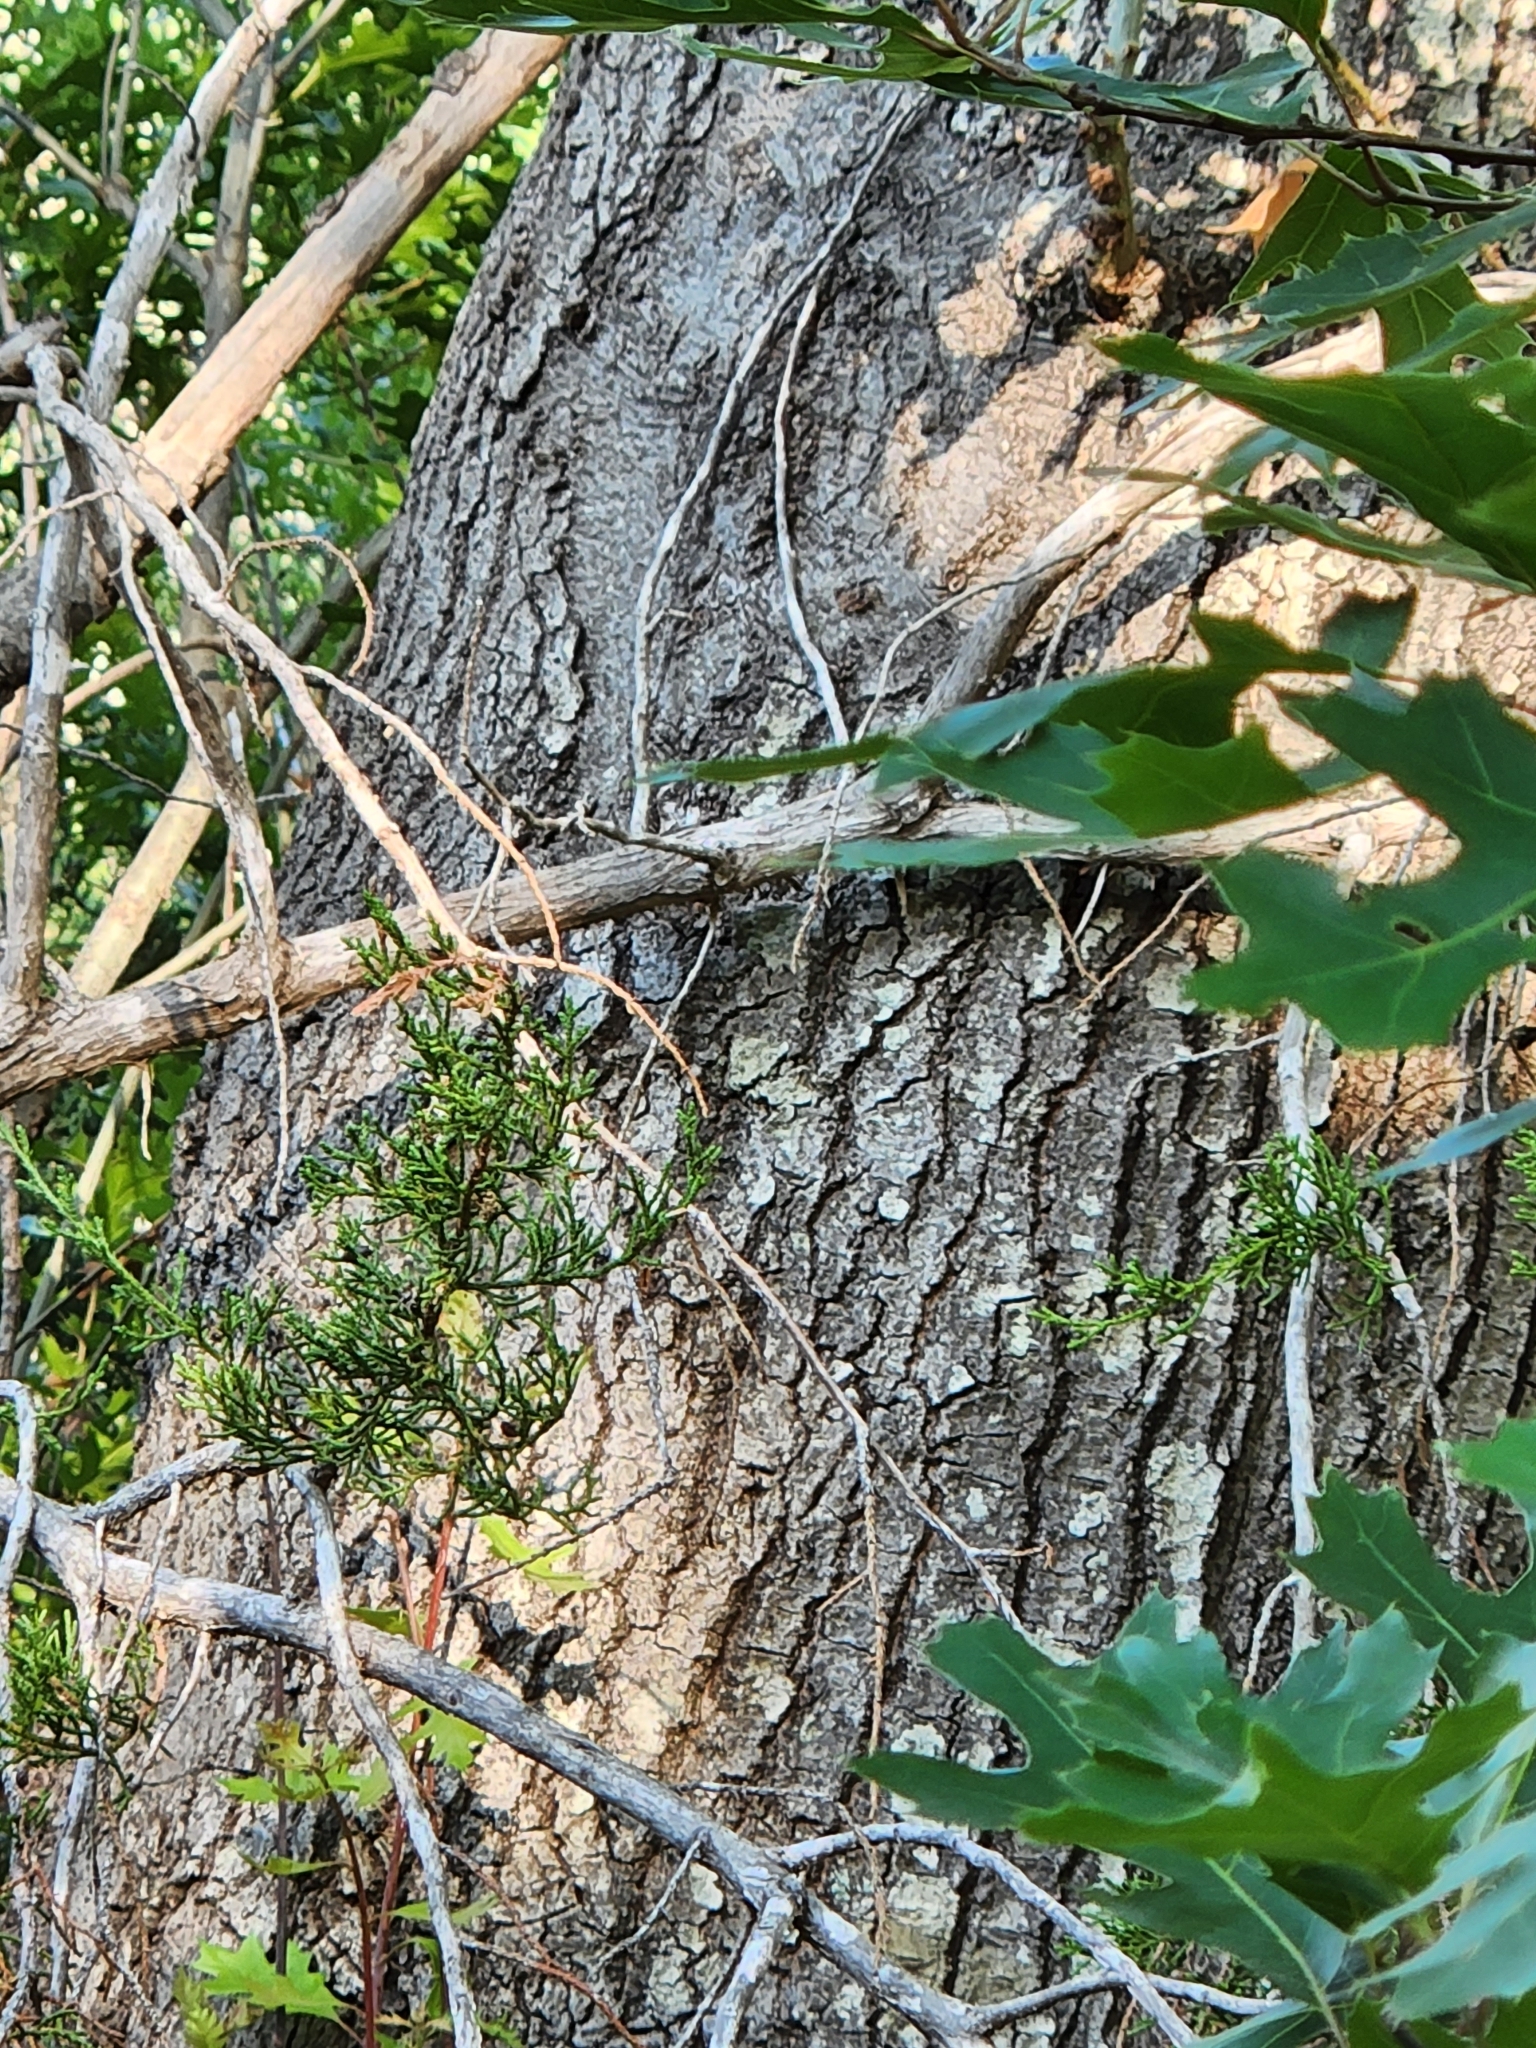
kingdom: Plantae
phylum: Tracheophyta
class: Magnoliopsida
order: Fagales
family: Fagaceae
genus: Quercus
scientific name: Quercus buckleyi
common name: Buckley oak
